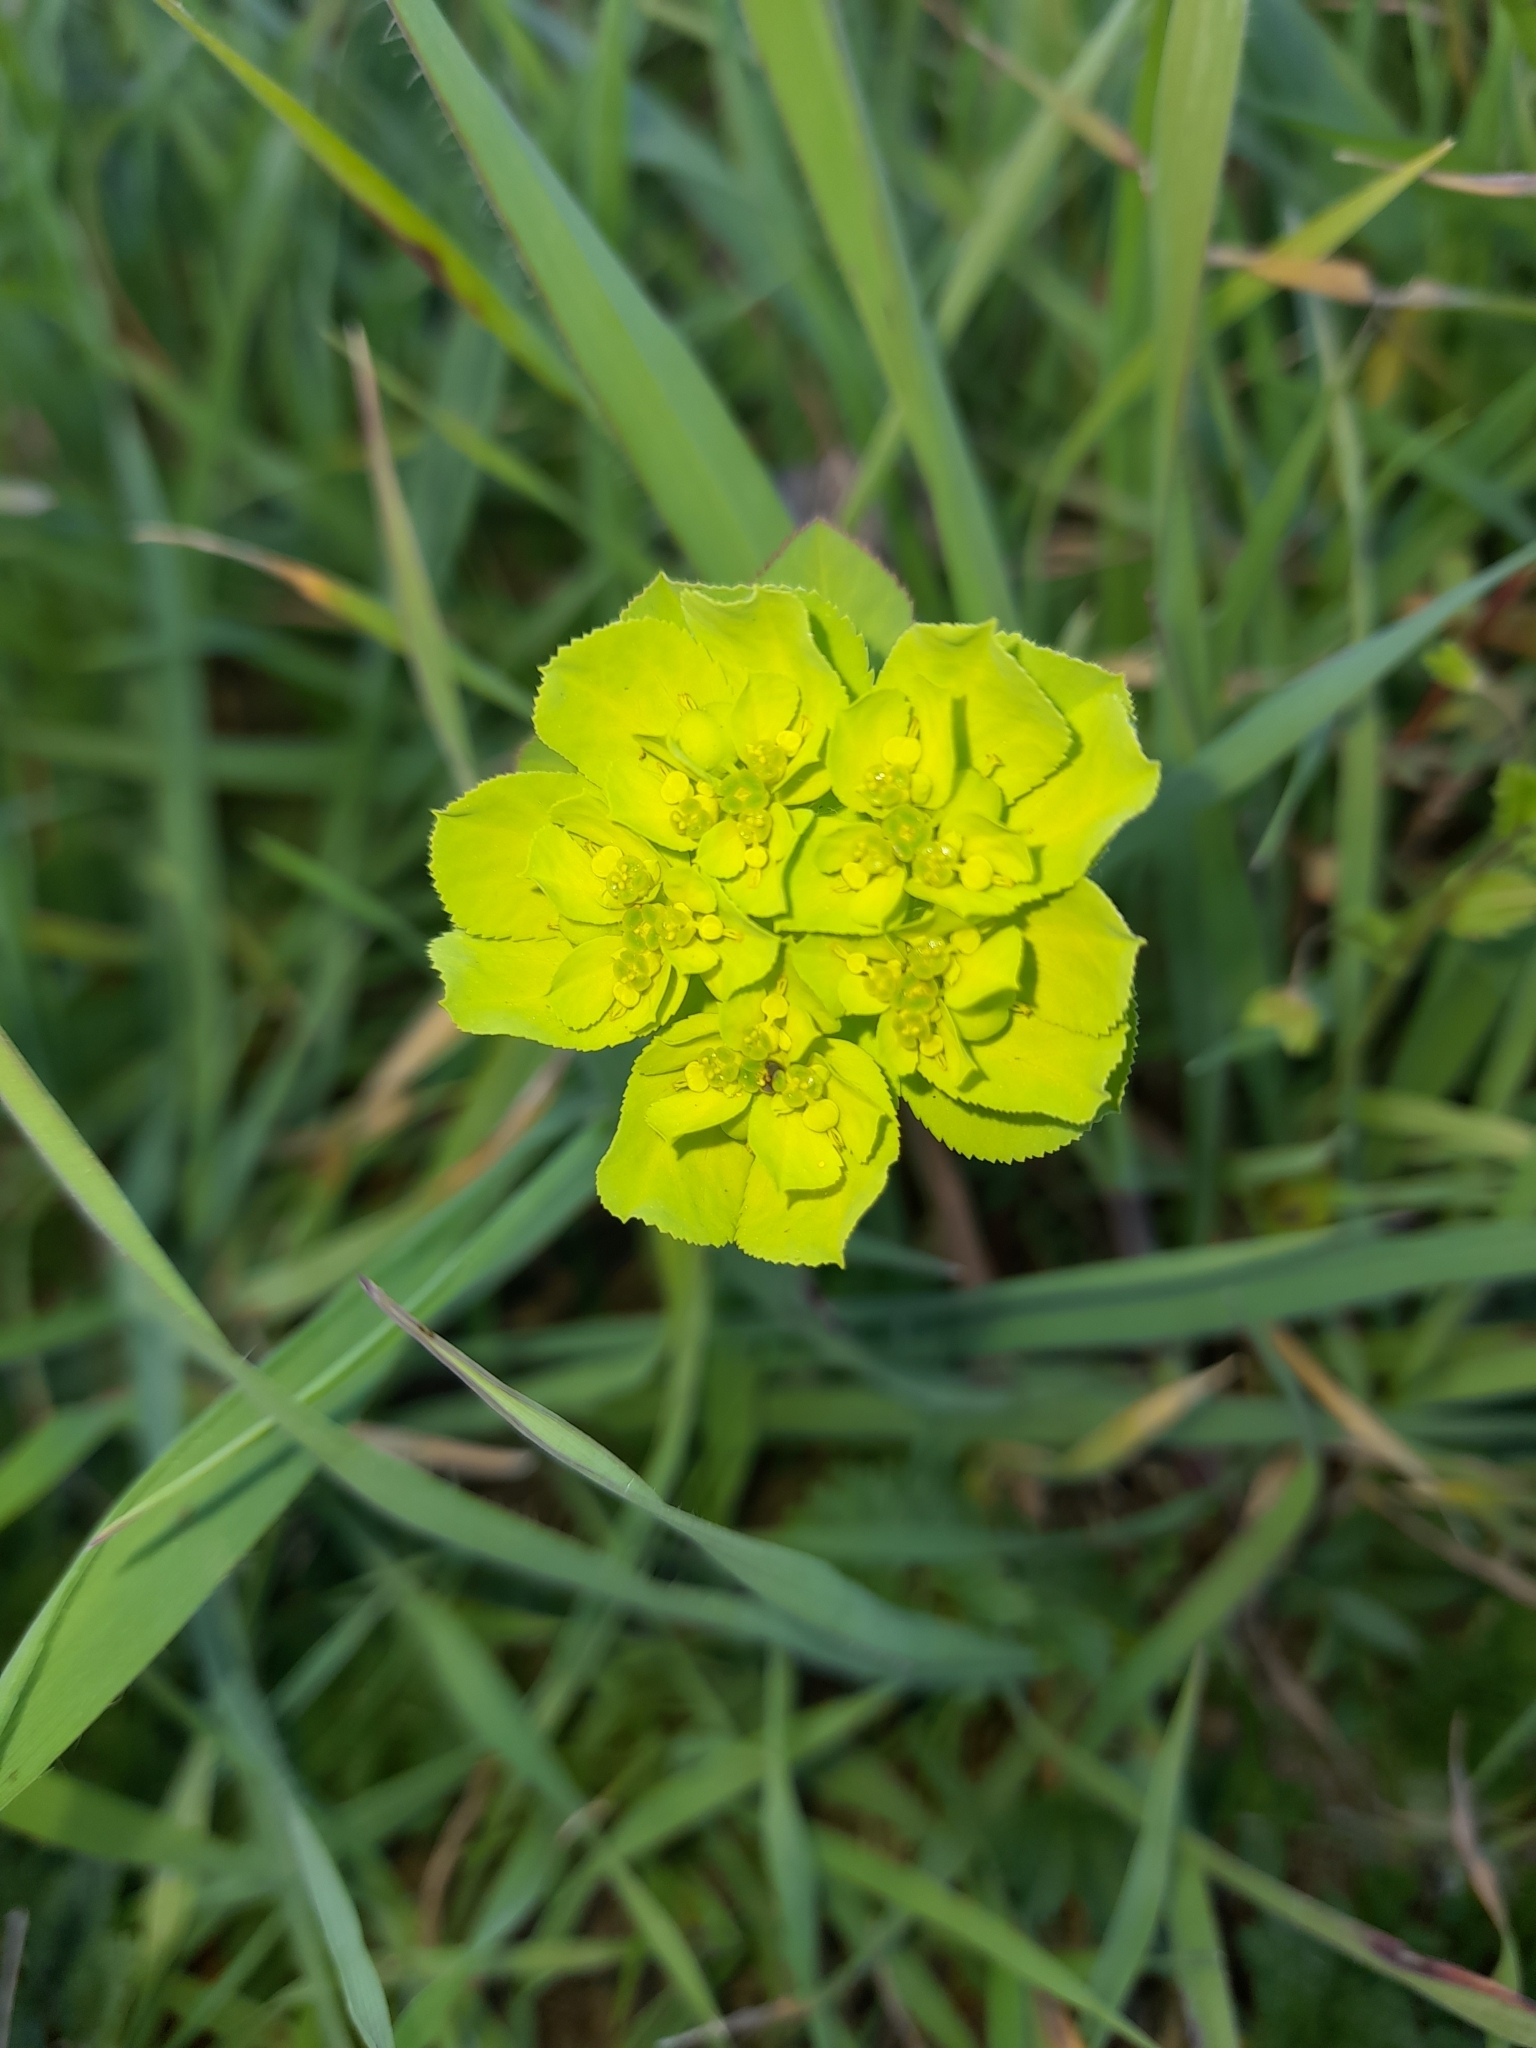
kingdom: Plantae
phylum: Tracheophyta
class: Magnoliopsida
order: Malpighiales
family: Euphorbiaceae
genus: Euphorbia
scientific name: Euphorbia helioscopia
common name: Sun spurge
